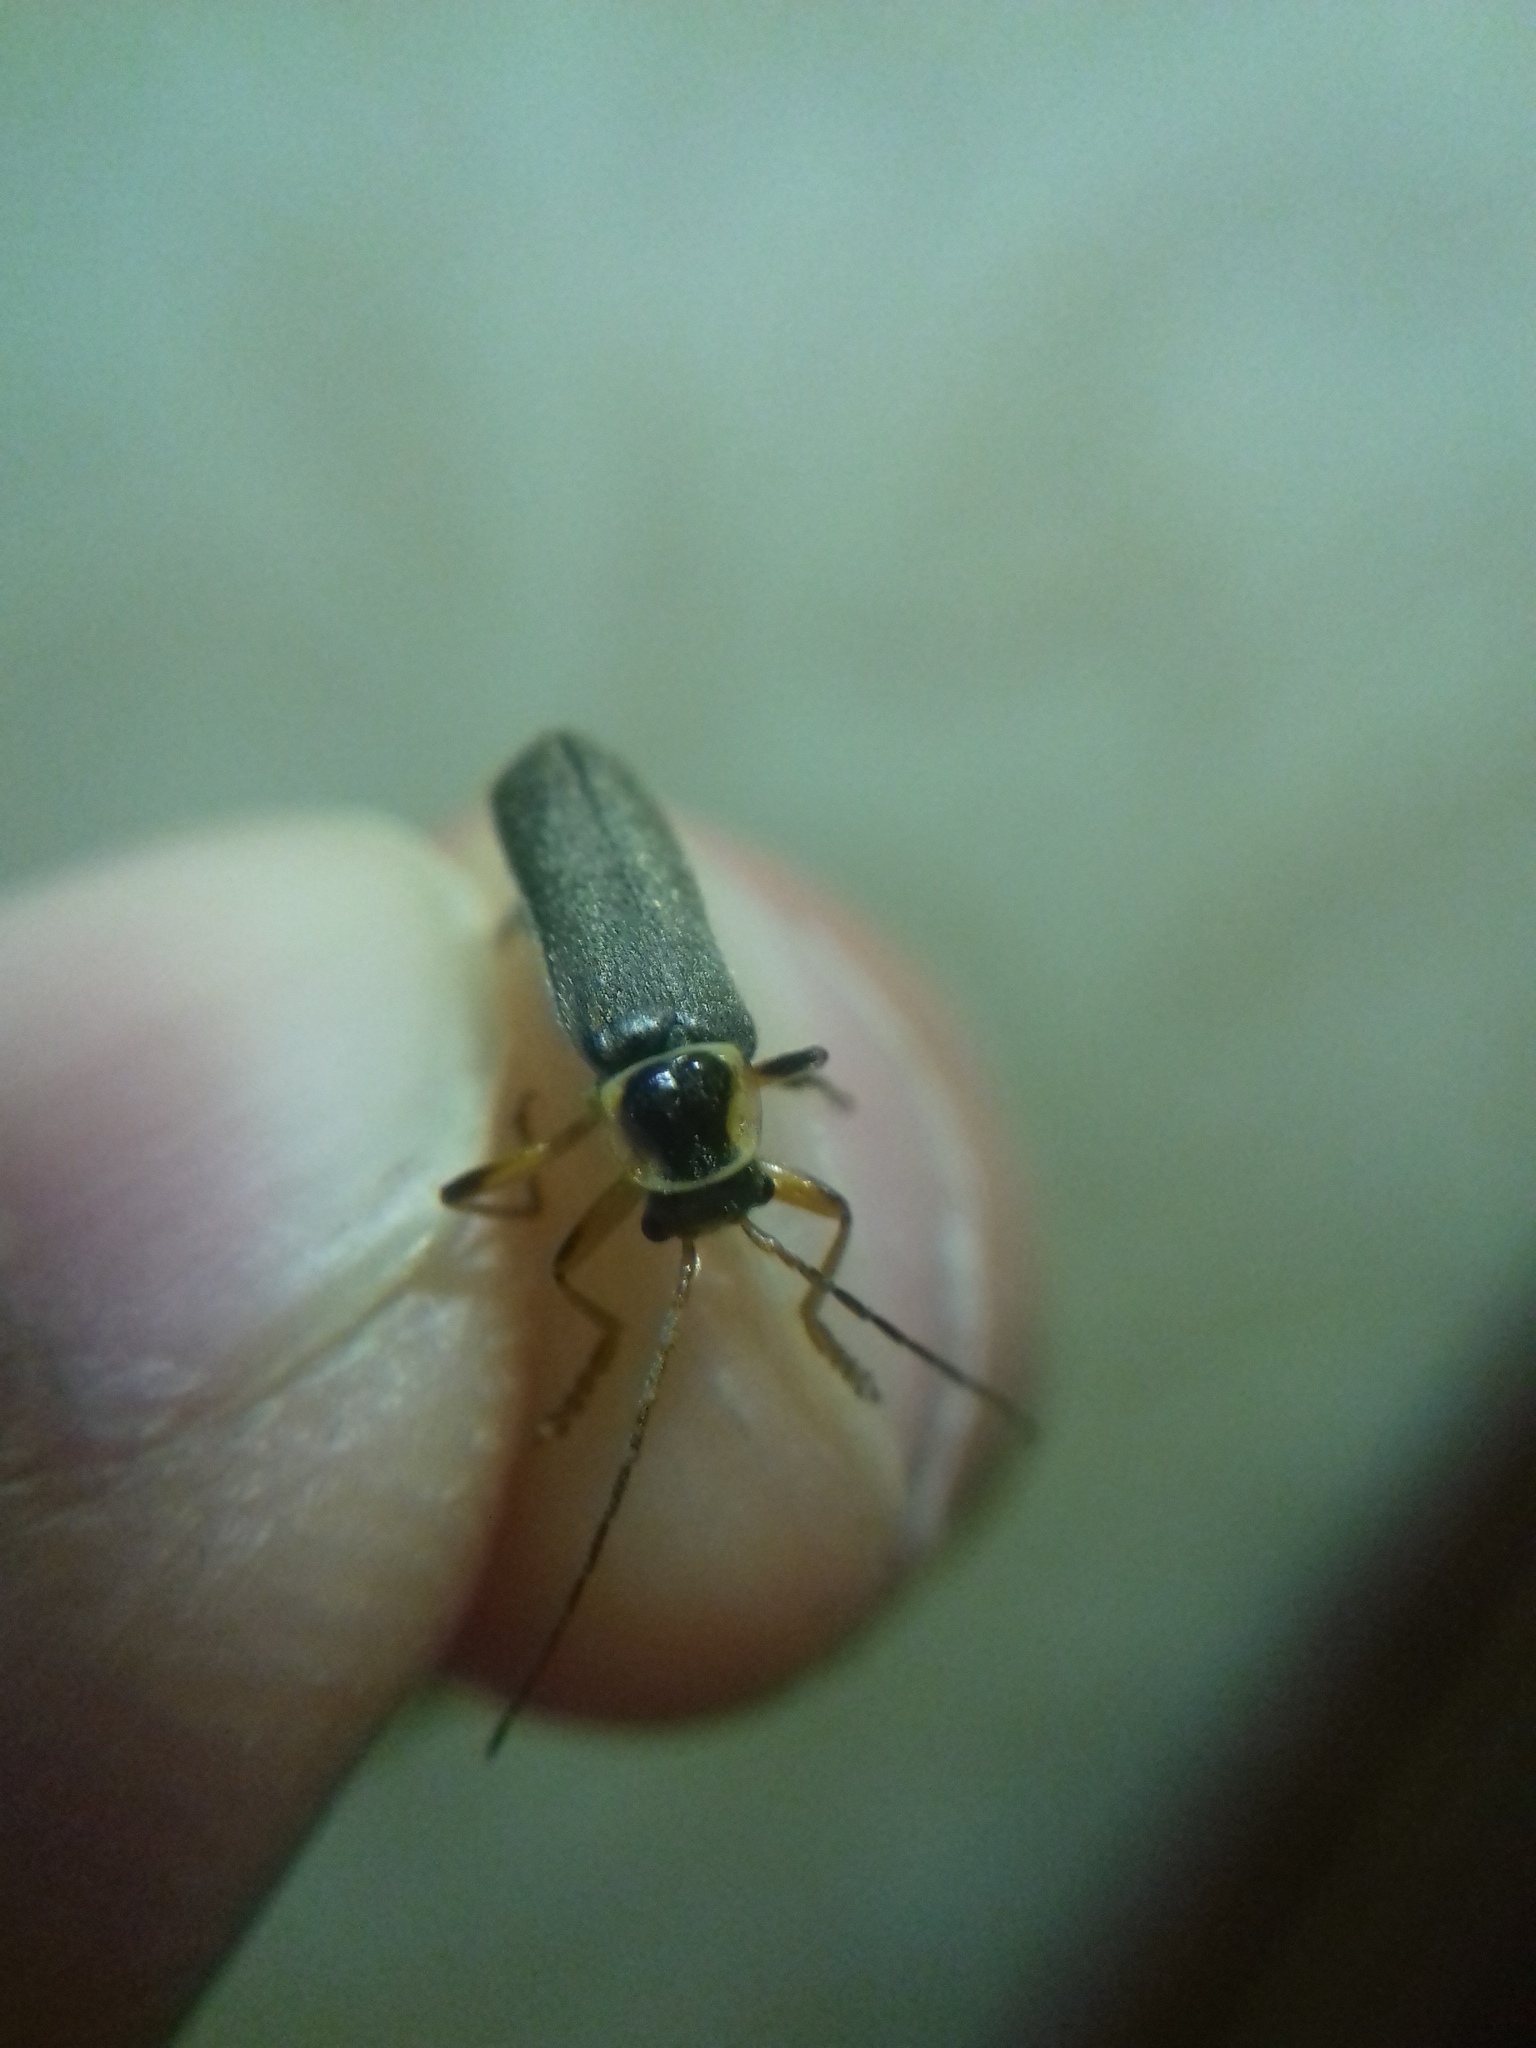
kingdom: Animalia
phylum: Arthropoda
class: Insecta
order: Coleoptera
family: Cantharidae
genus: Cantharis
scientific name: Cantharis nigricans
